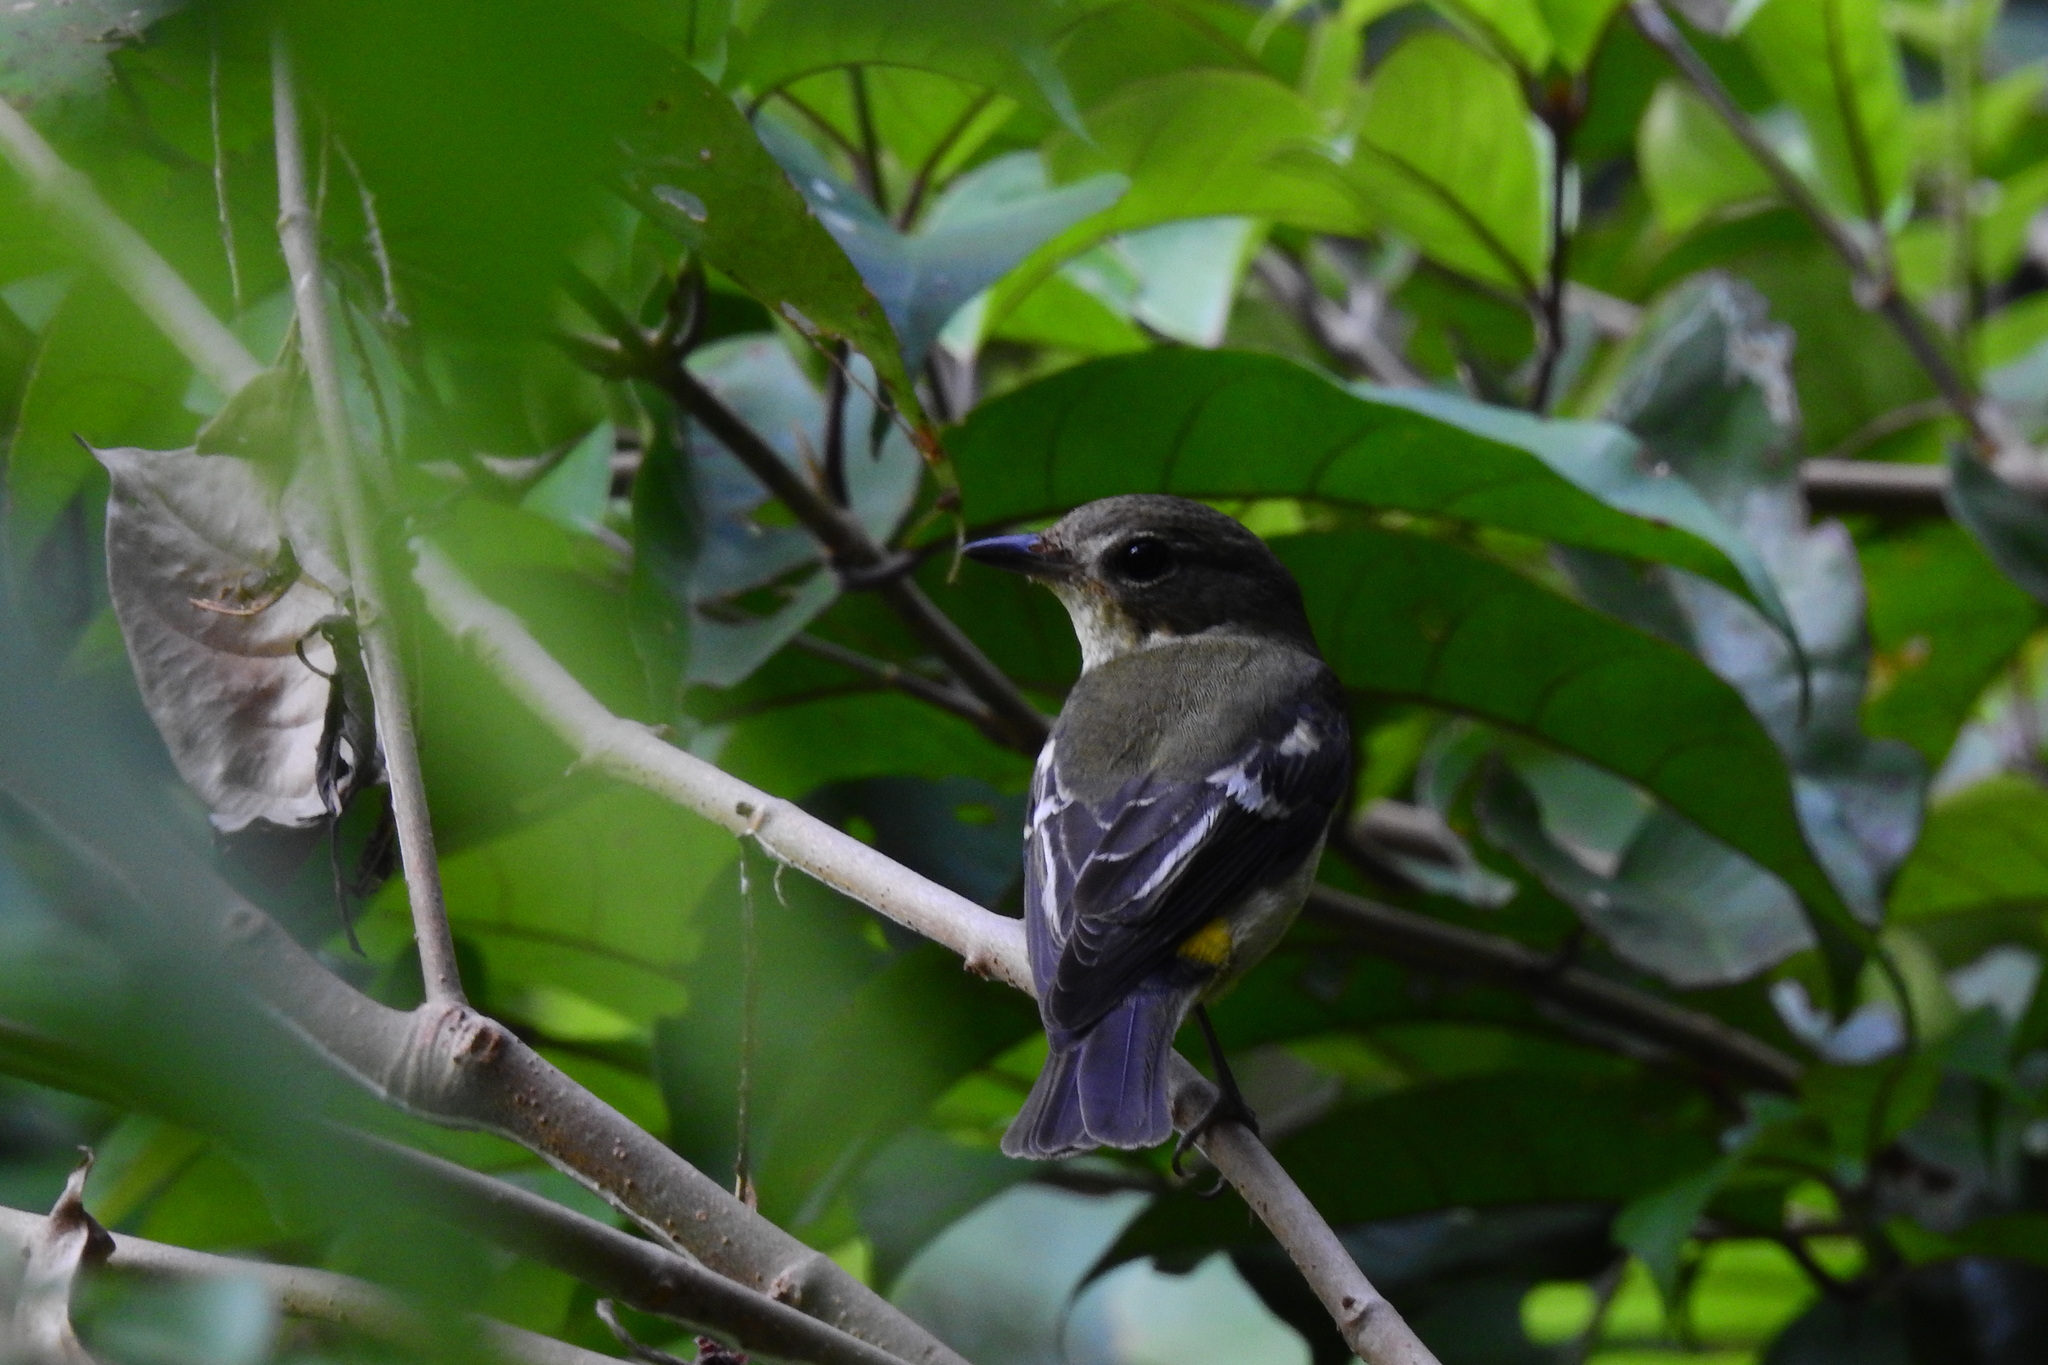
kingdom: Animalia
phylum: Chordata
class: Aves
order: Passeriformes
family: Muscicapidae
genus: Ficedula
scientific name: Ficedula zanthopygia
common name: Yellow-rumped flycatcher
